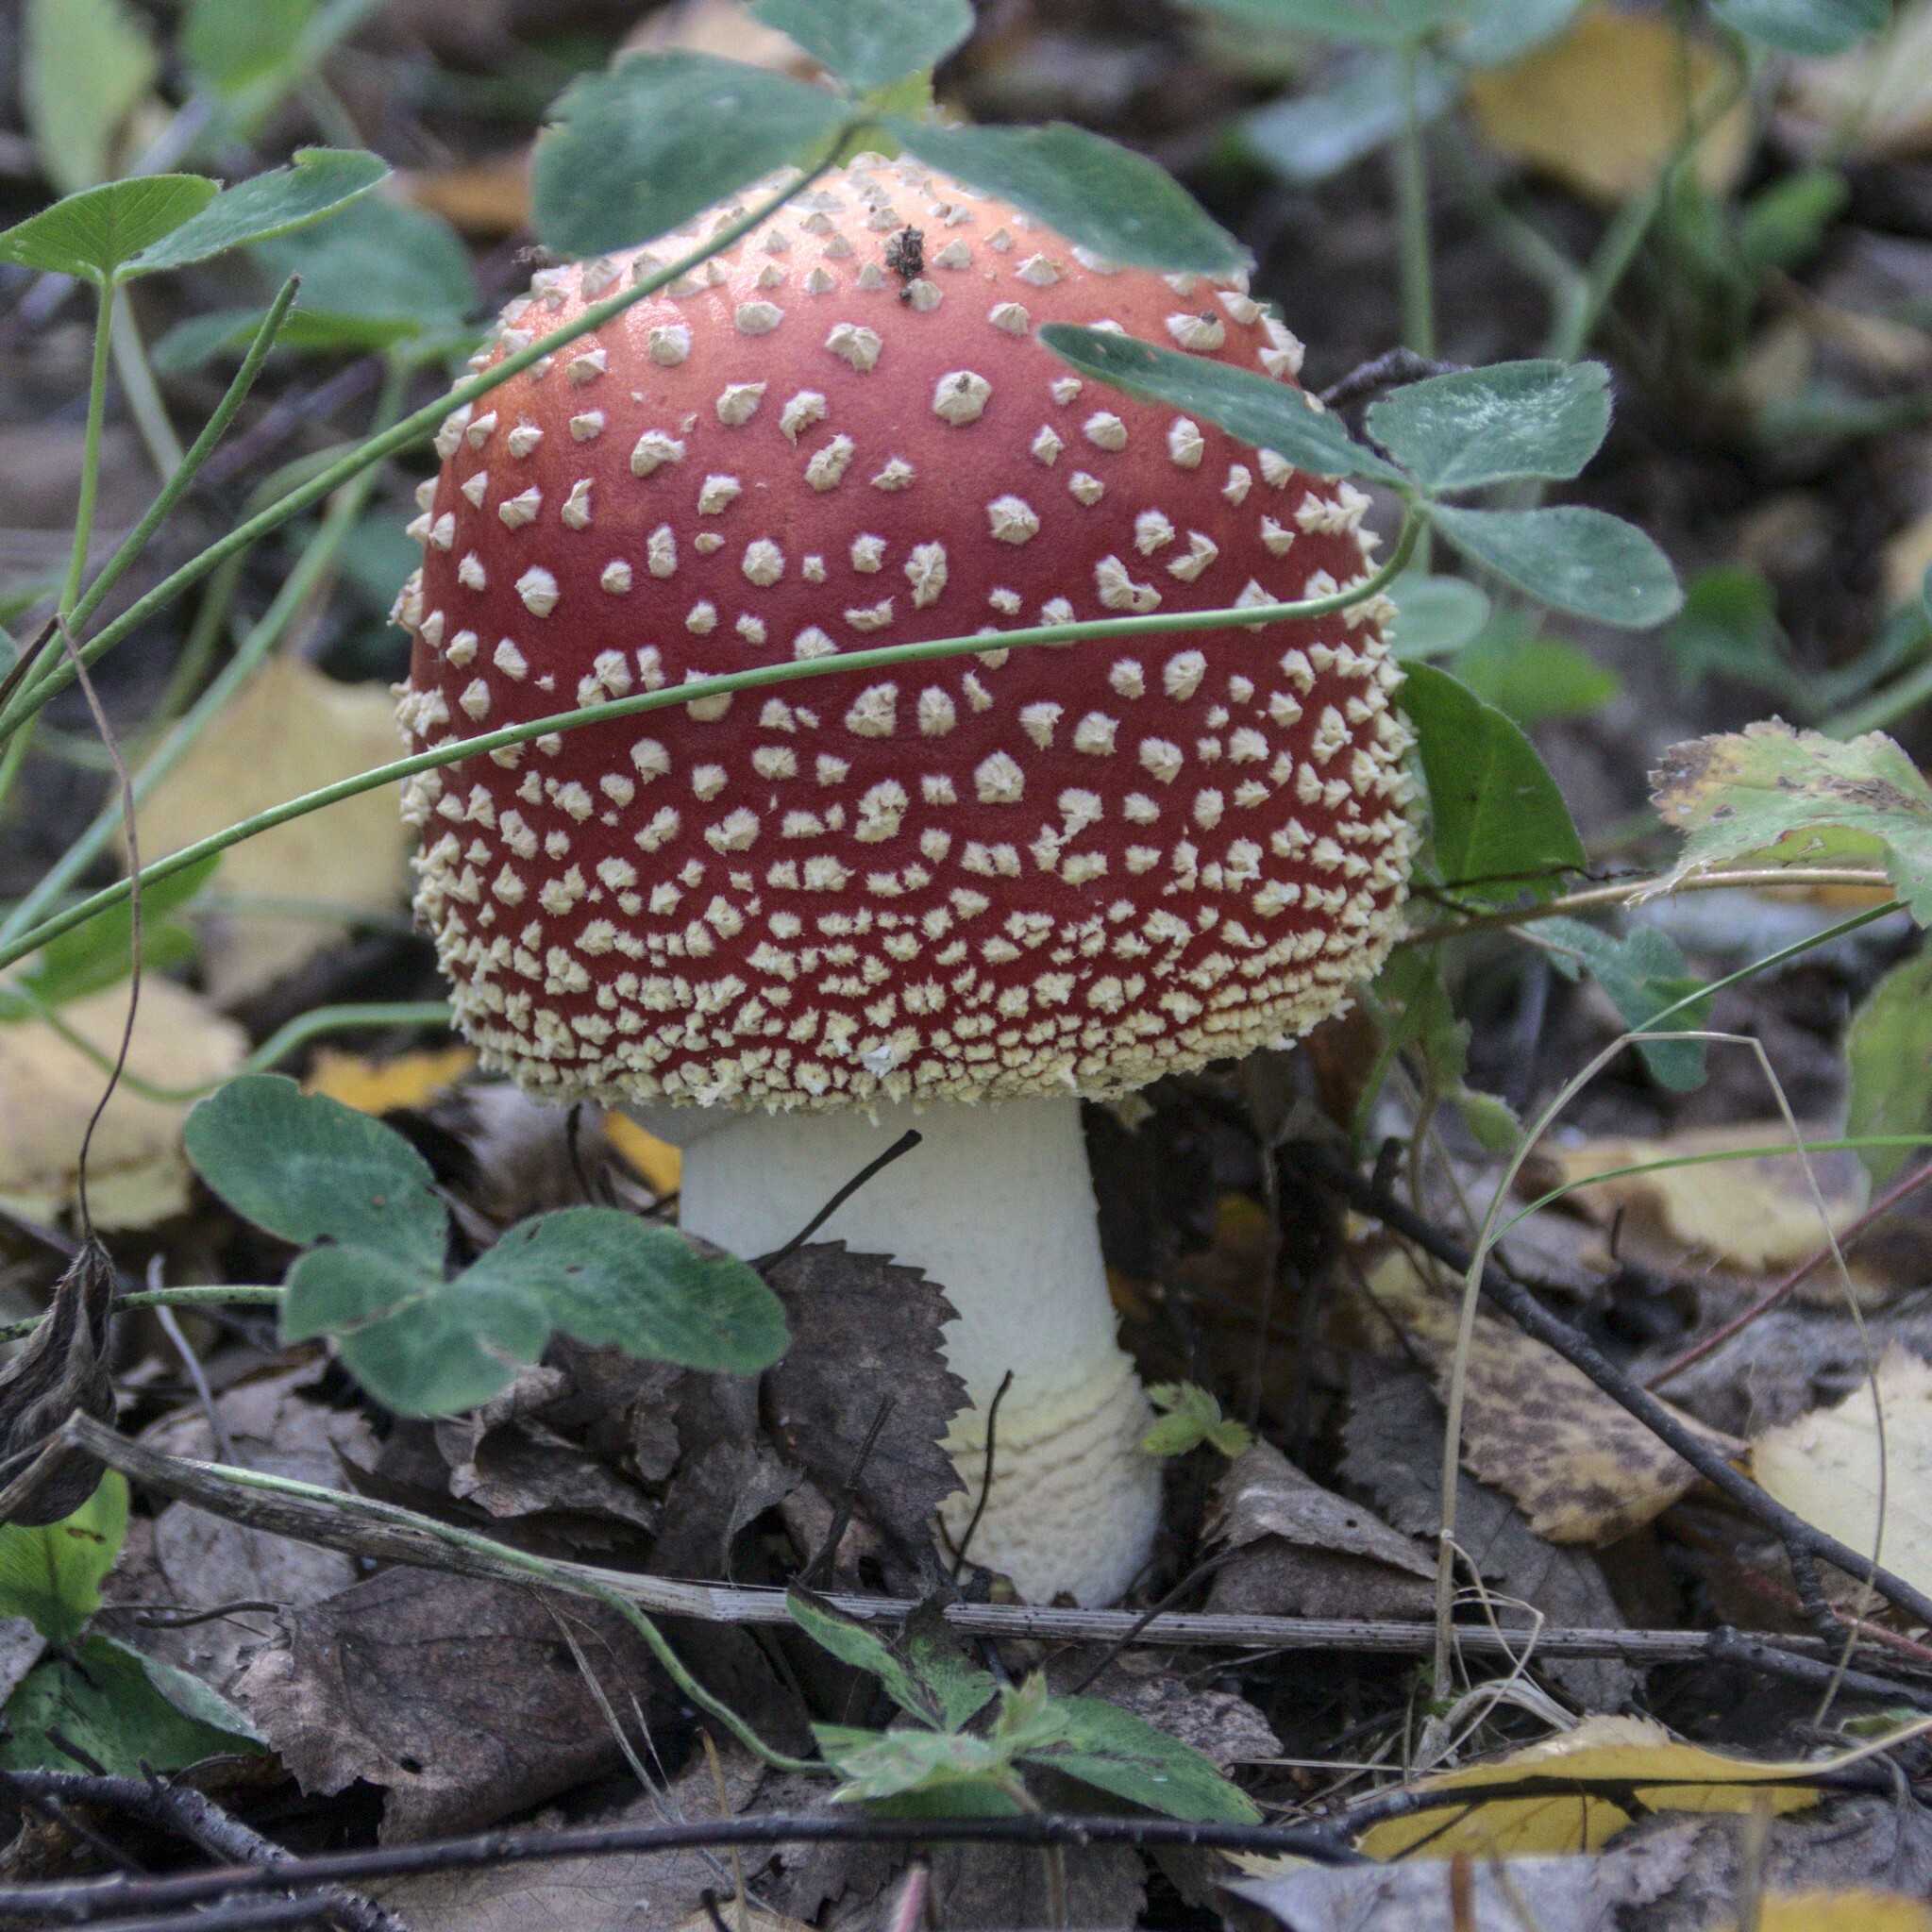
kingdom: Fungi
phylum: Basidiomycota
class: Agaricomycetes
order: Agaricales
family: Amanitaceae
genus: Amanita
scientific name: Amanita muscaria
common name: Fly agaric
